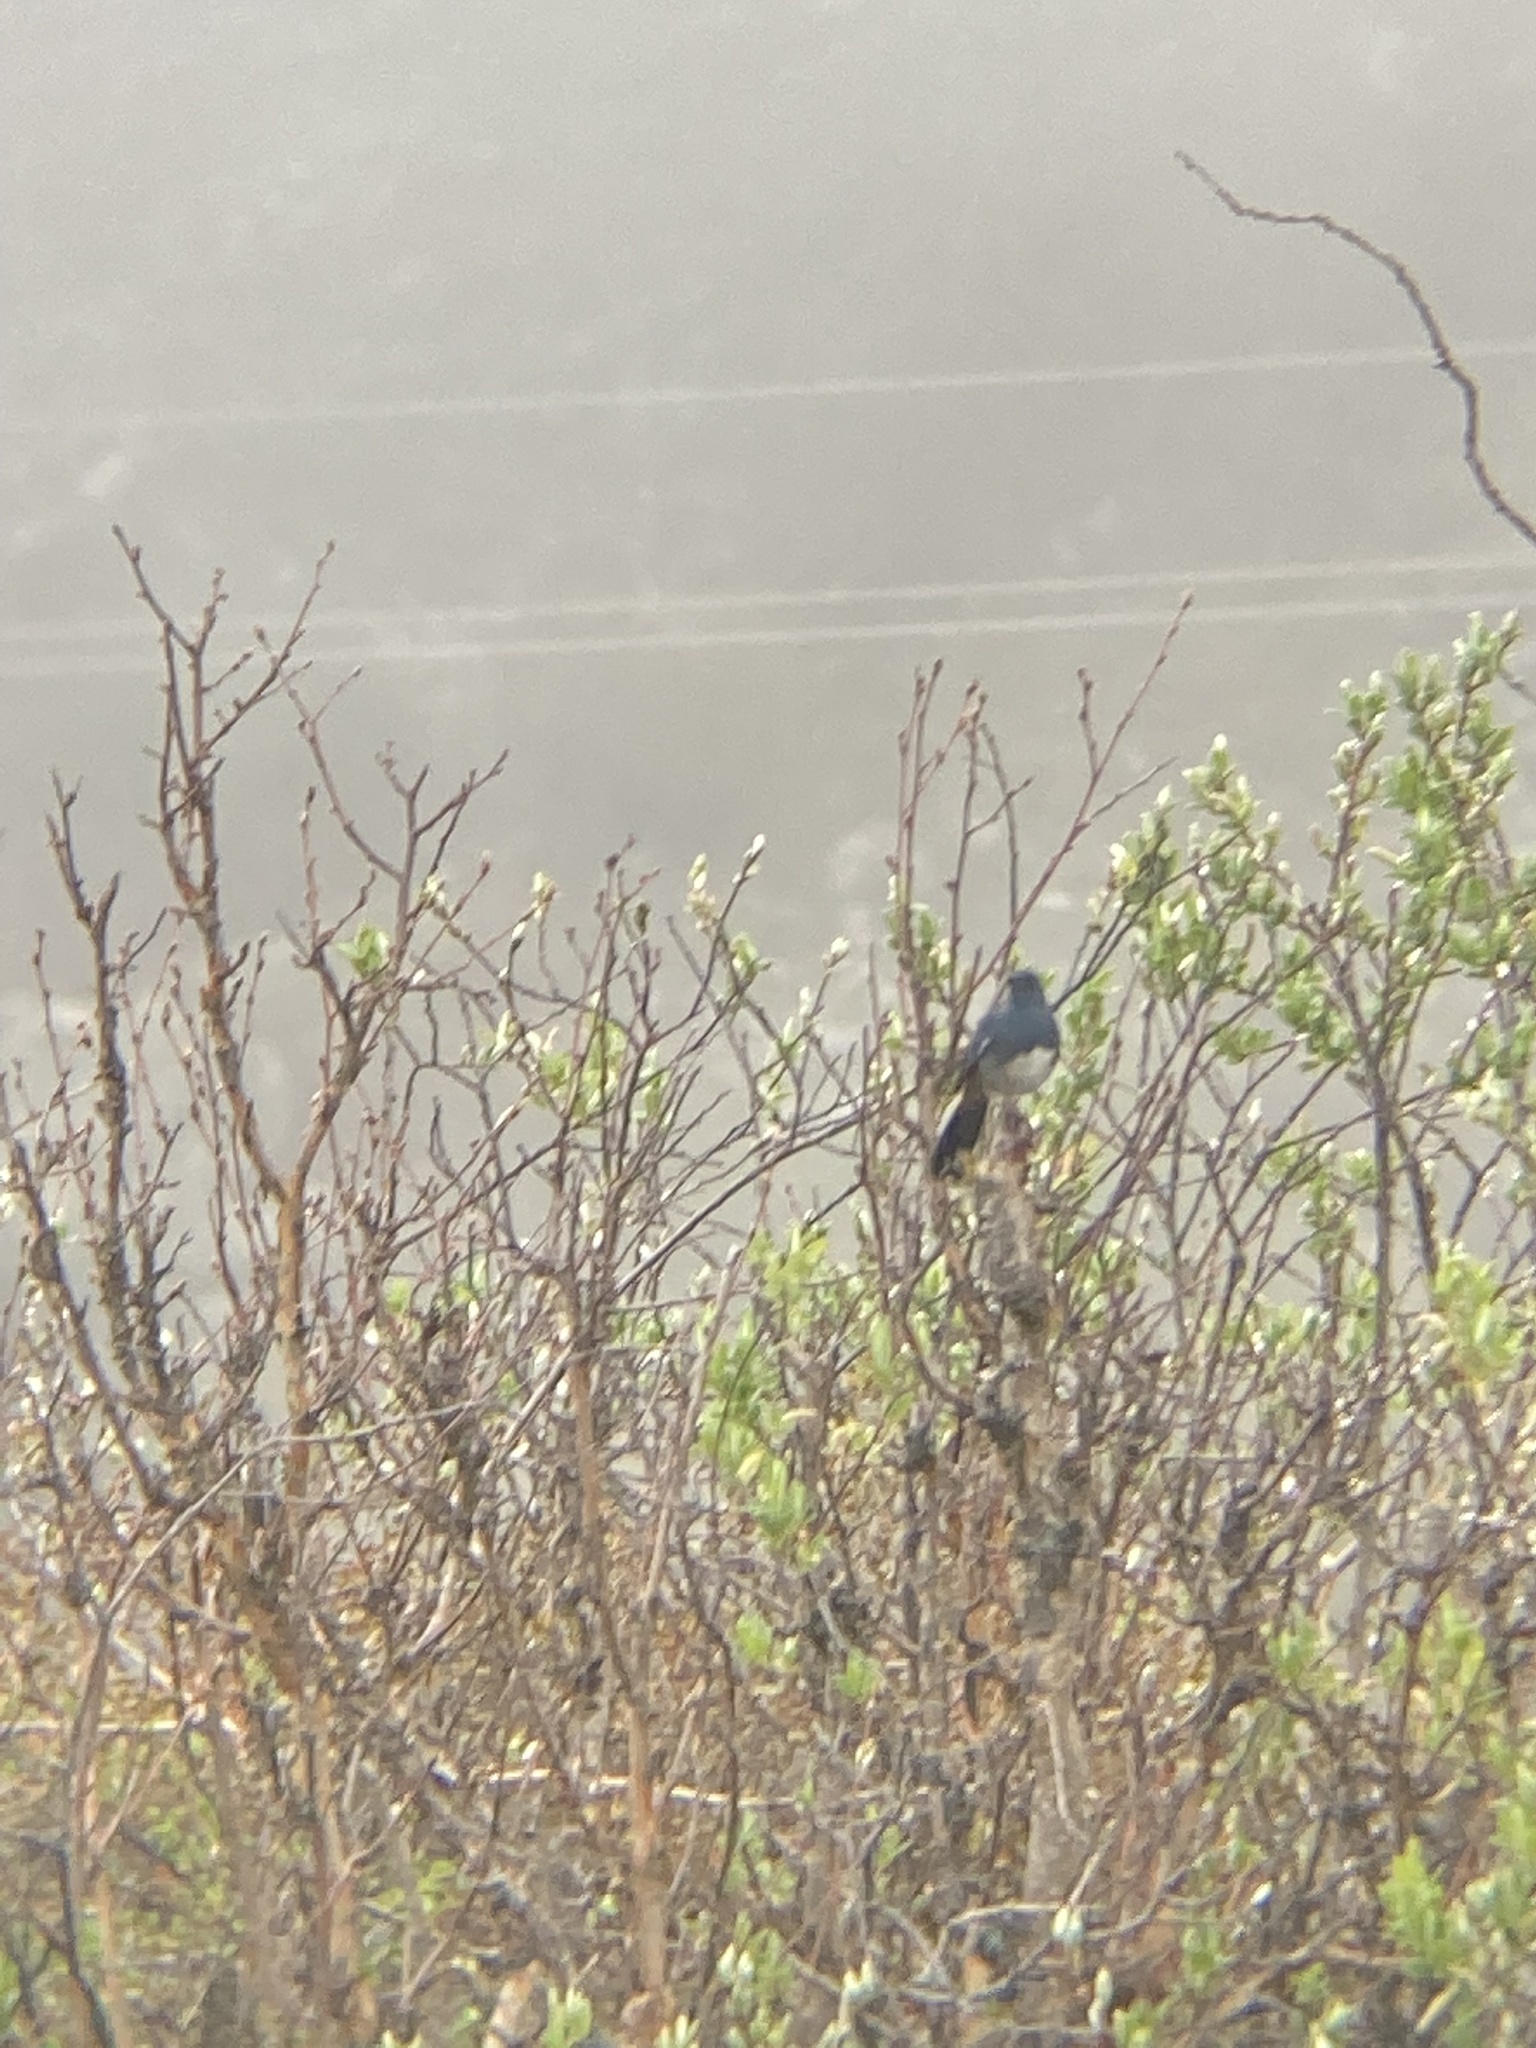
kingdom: Animalia
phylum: Chordata
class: Aves
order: Passeriformes
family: Muscicapidae
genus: Hodgsonius
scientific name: Hodgsonius phoenicuroides
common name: White-bellied redstart
